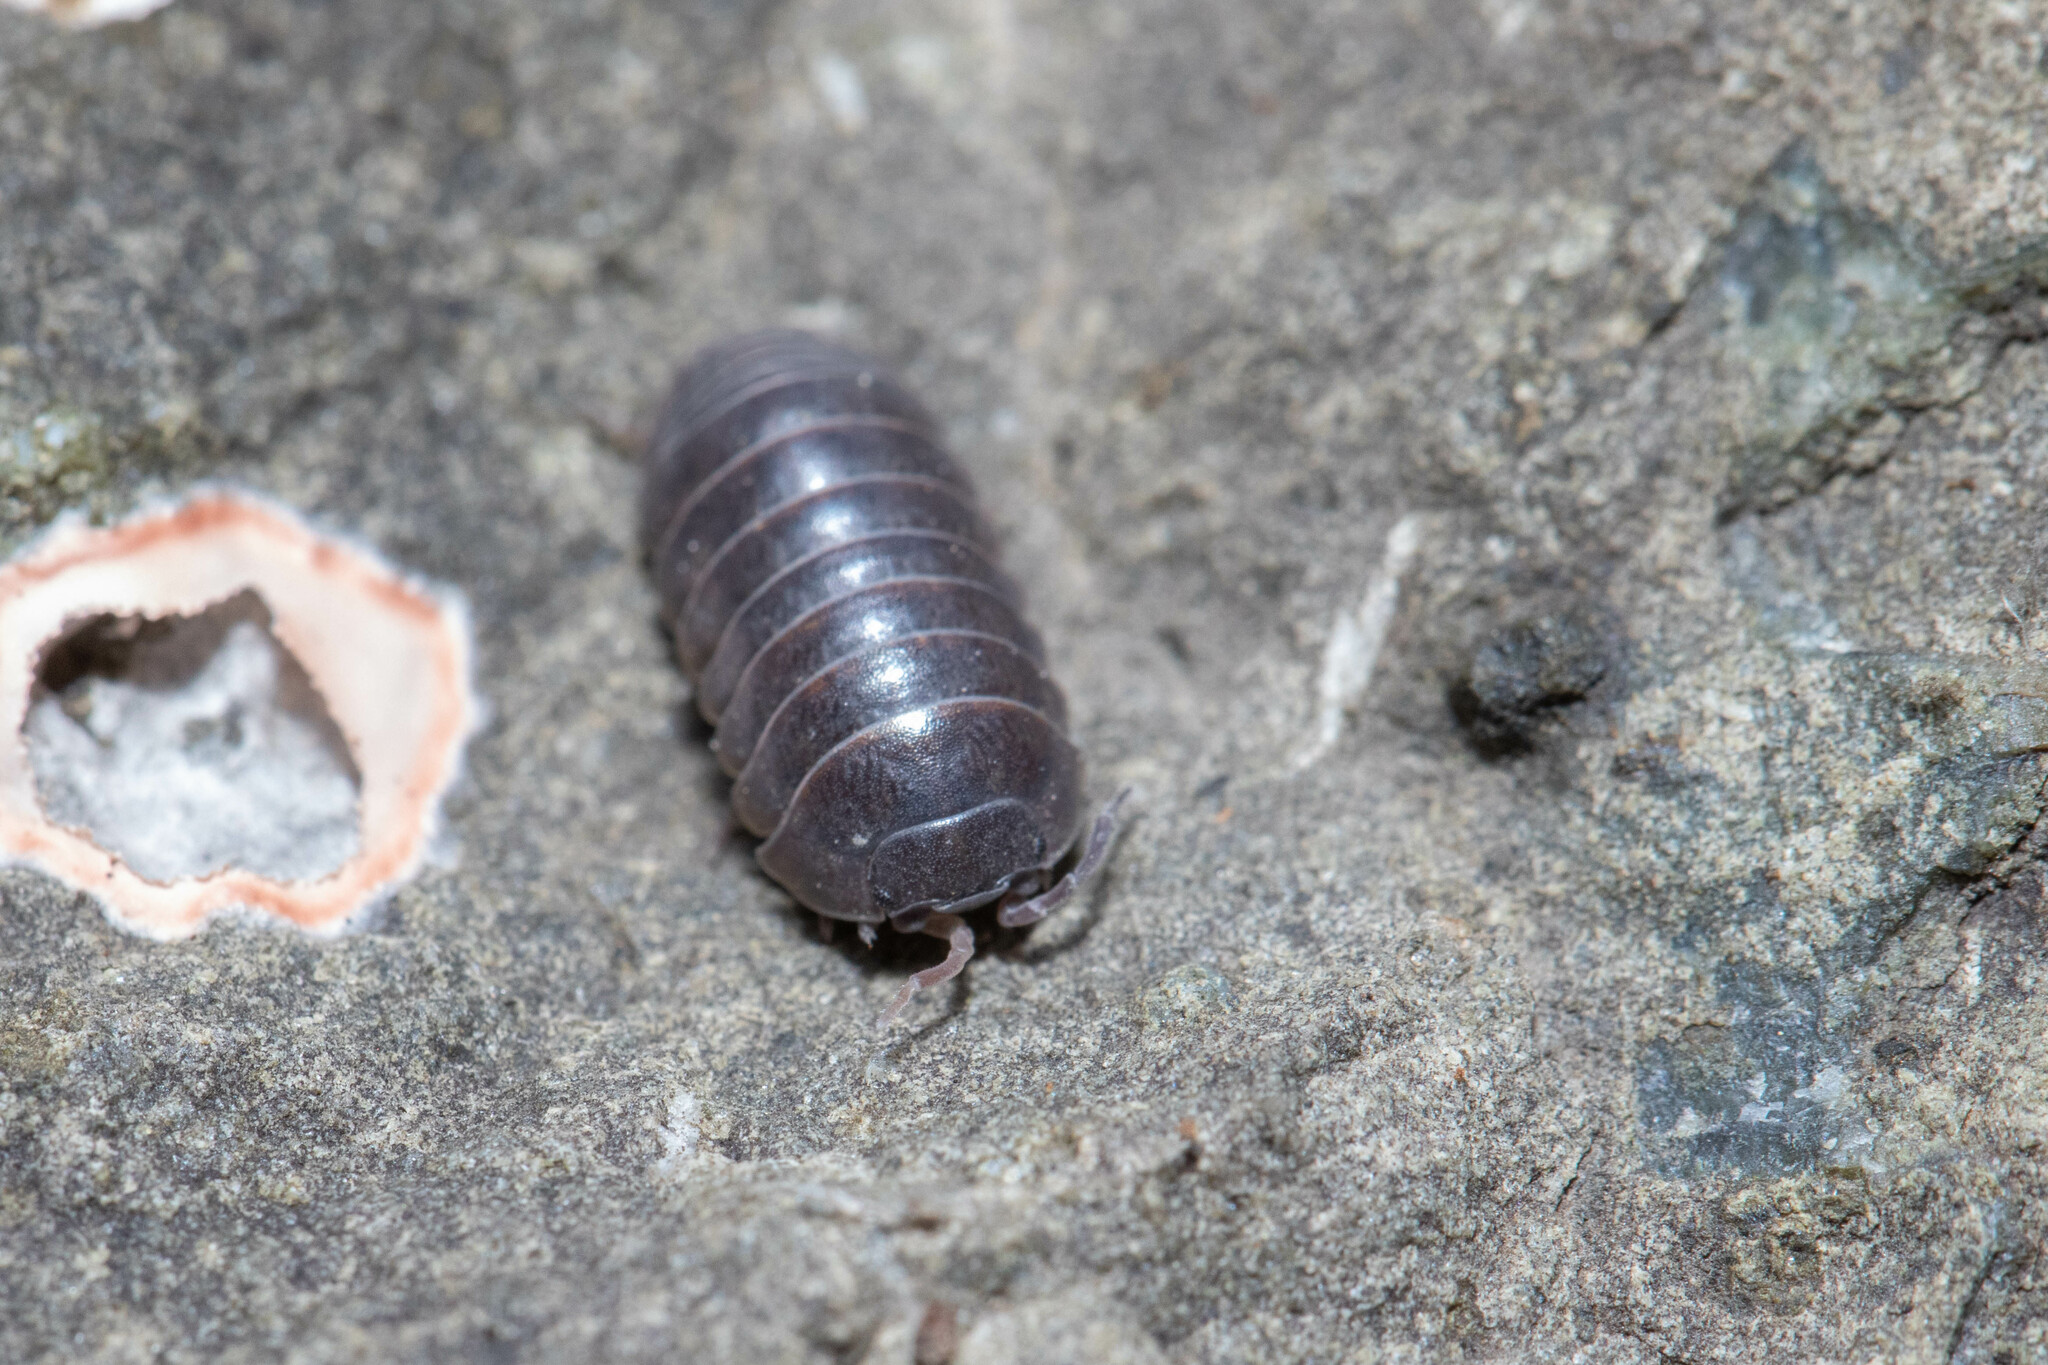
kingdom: Animalia
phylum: Arthropoda
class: Malacostraca
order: Isopoda
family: Armadillidiidae
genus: Armadillidium
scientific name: Armadillidium vulgare
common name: Common pill woodlouse
